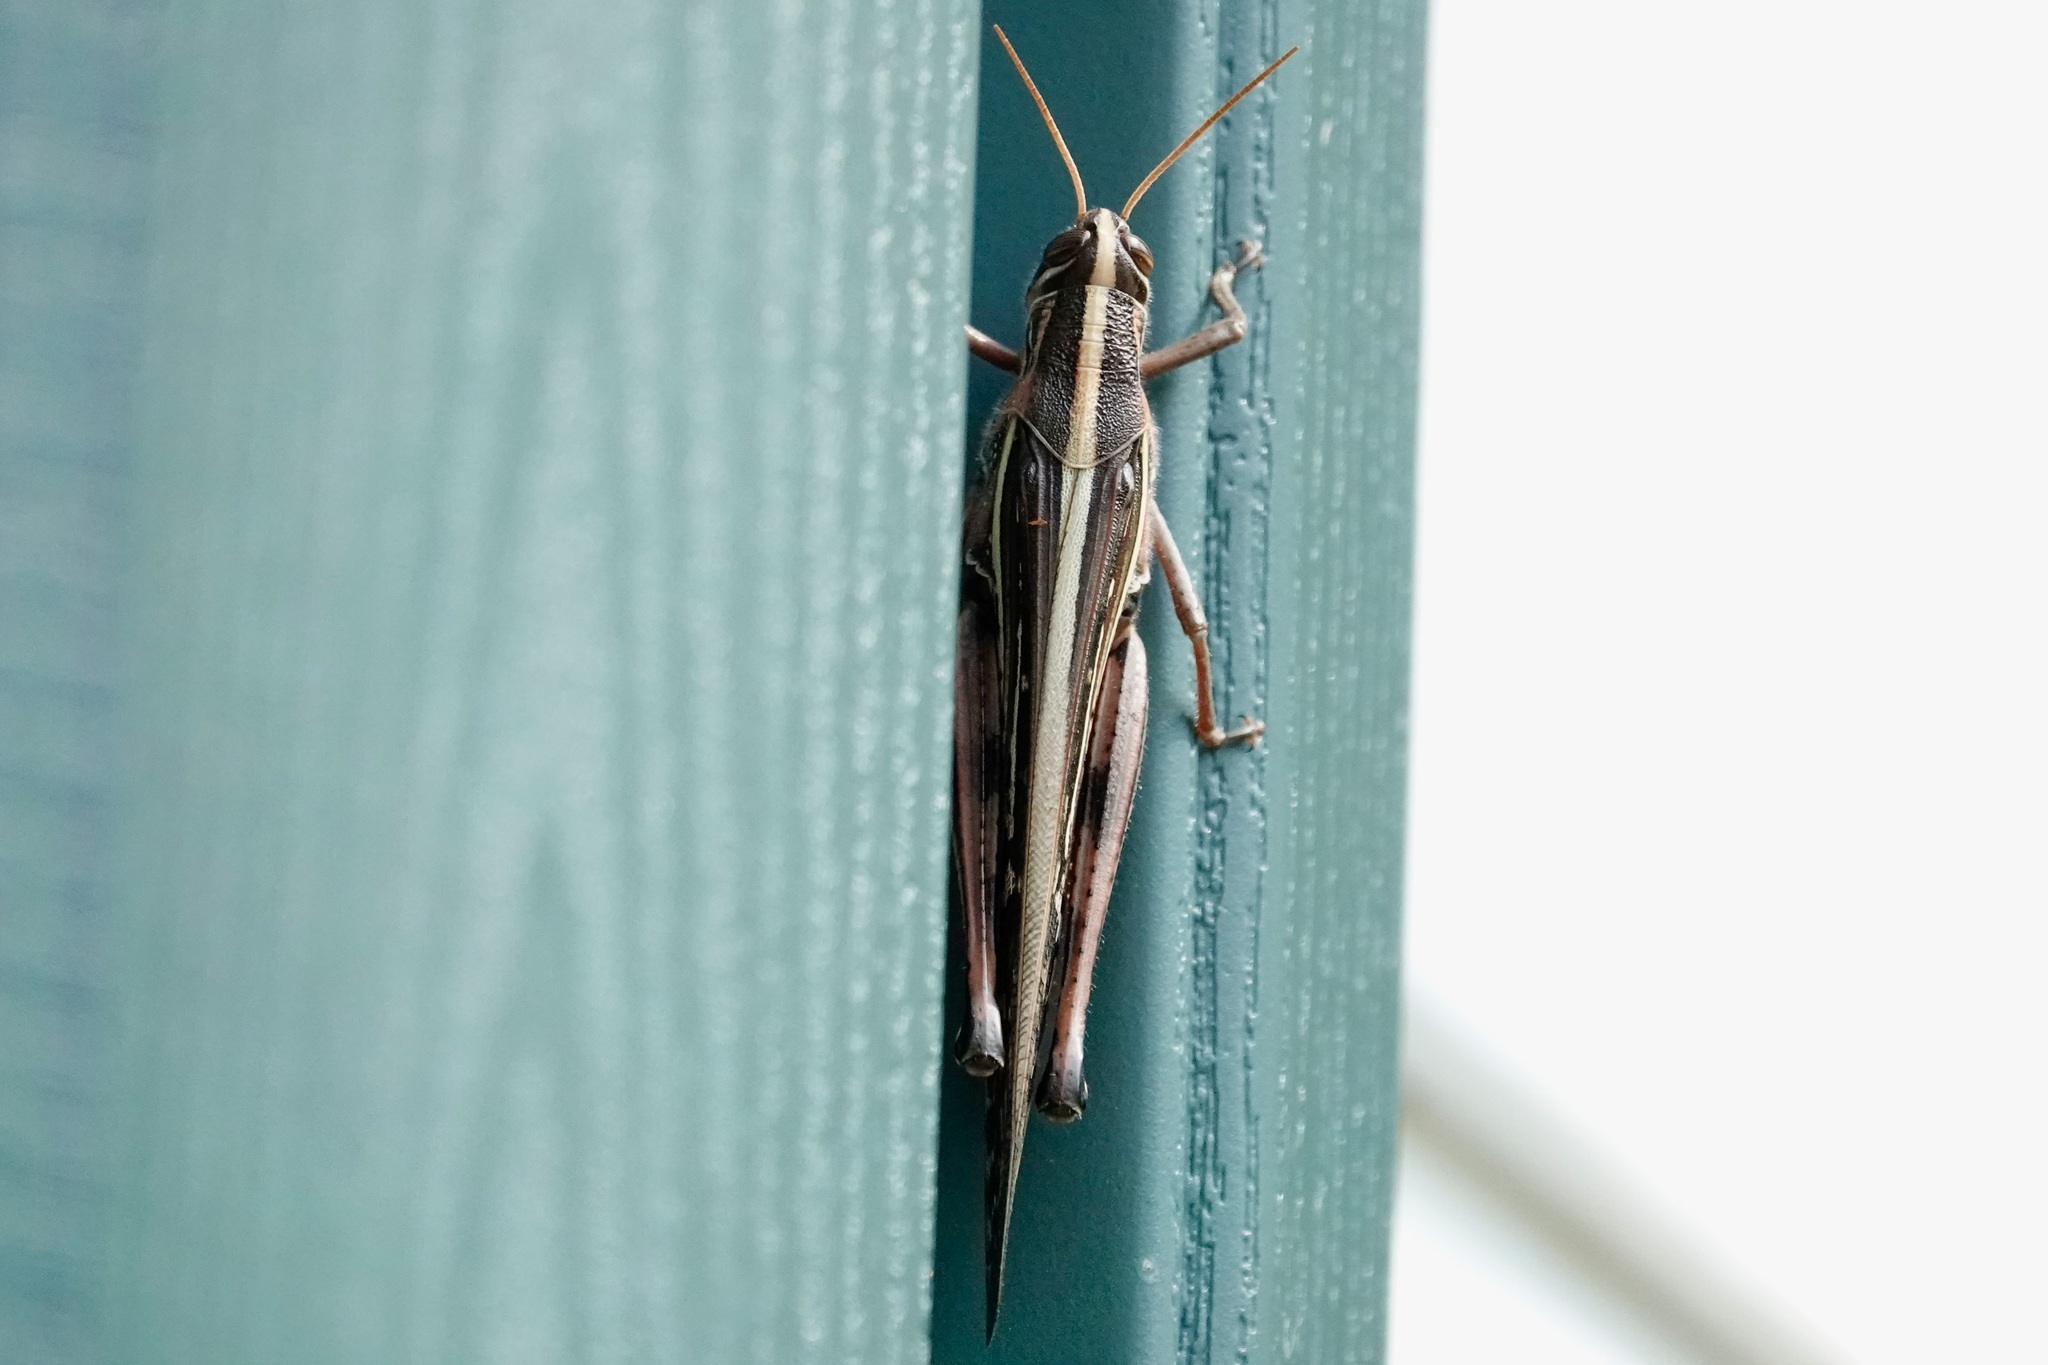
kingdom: Animalia
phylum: Arthropoda
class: Insecta
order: Orthoptera
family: Acrididae
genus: Schistocerca
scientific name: Schistocerca americana
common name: American bird locust
